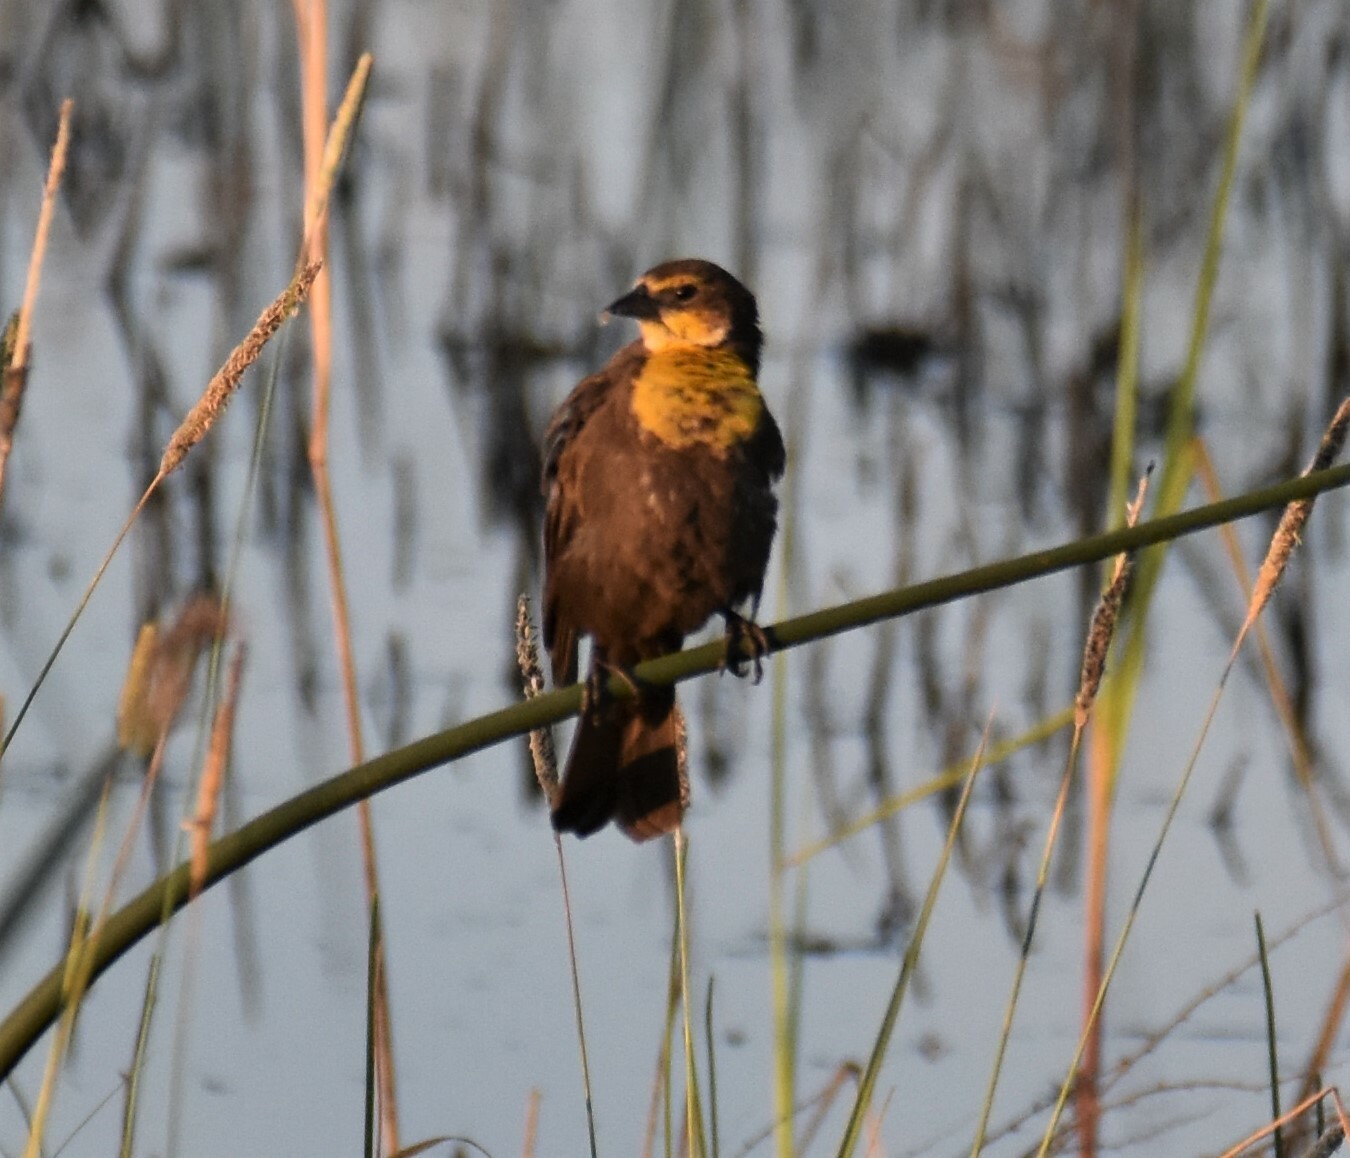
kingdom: Animalia
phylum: Chordata
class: Aves
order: Passeriformes
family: Icteridae
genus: Xanthocephalus
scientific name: Xanthocephalus xanthocephalus
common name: Yellow-headed blackbird
